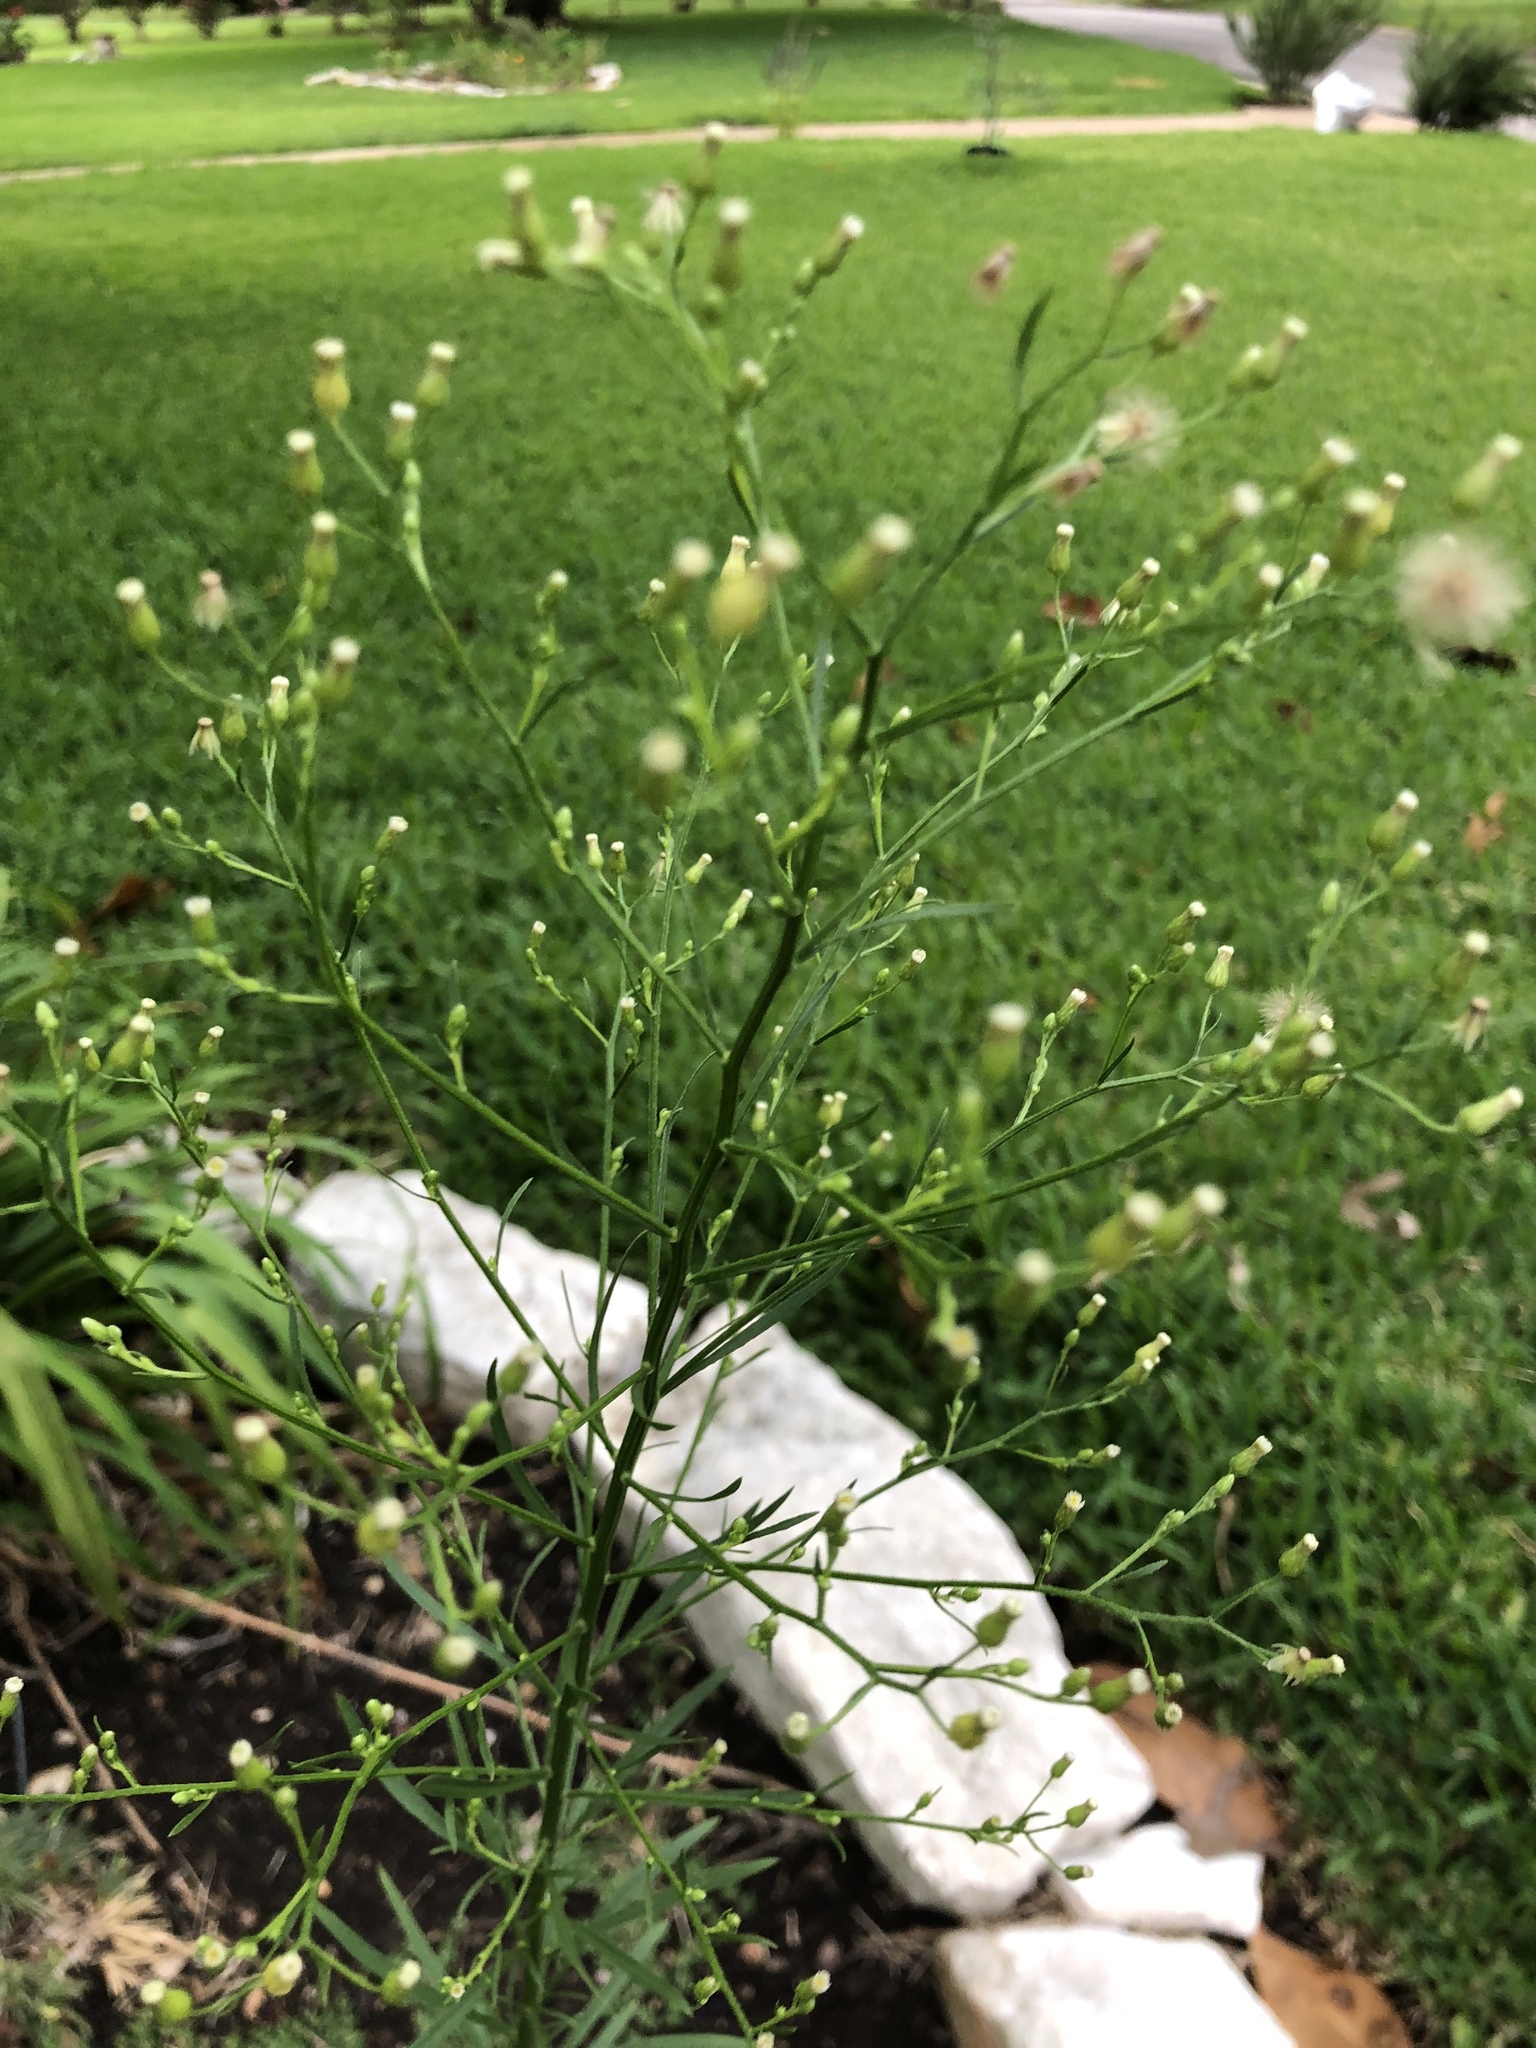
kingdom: Plantae
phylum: Tracheophyta
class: Magnoliopsida
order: Asterales
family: Asteraceae
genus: Erigeron
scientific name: Erigeron canadensis
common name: Canadian fleabane
